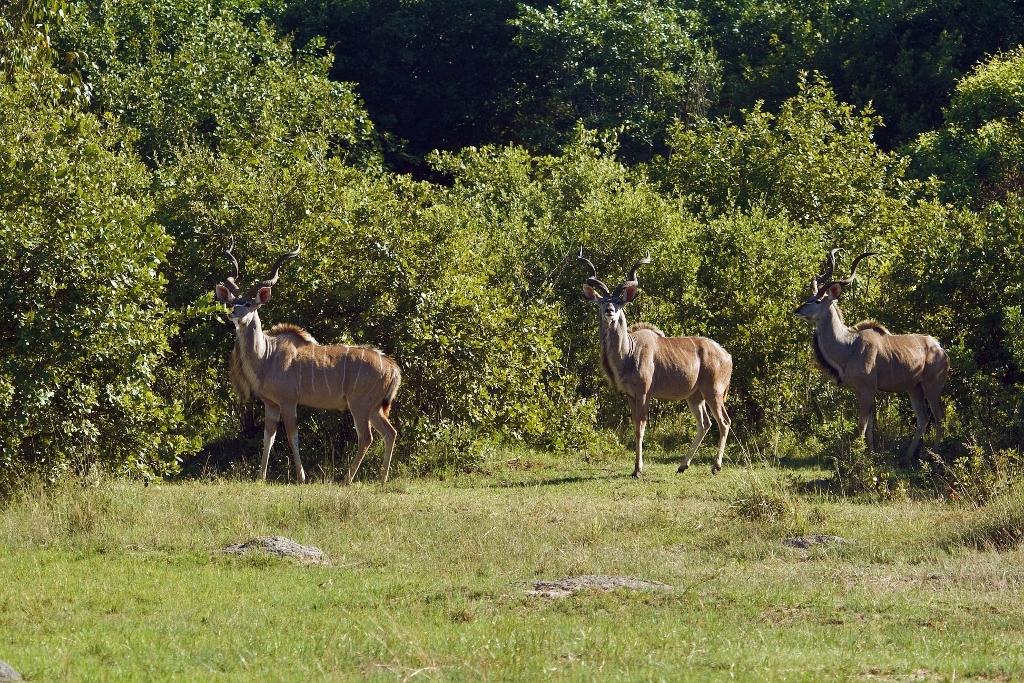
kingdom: Animalia
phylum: Chordata
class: Mammalia
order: Artiodactyla
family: Bovidae
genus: Tragelaphus
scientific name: Tragelaphus strepsiceros
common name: Greater kudu
